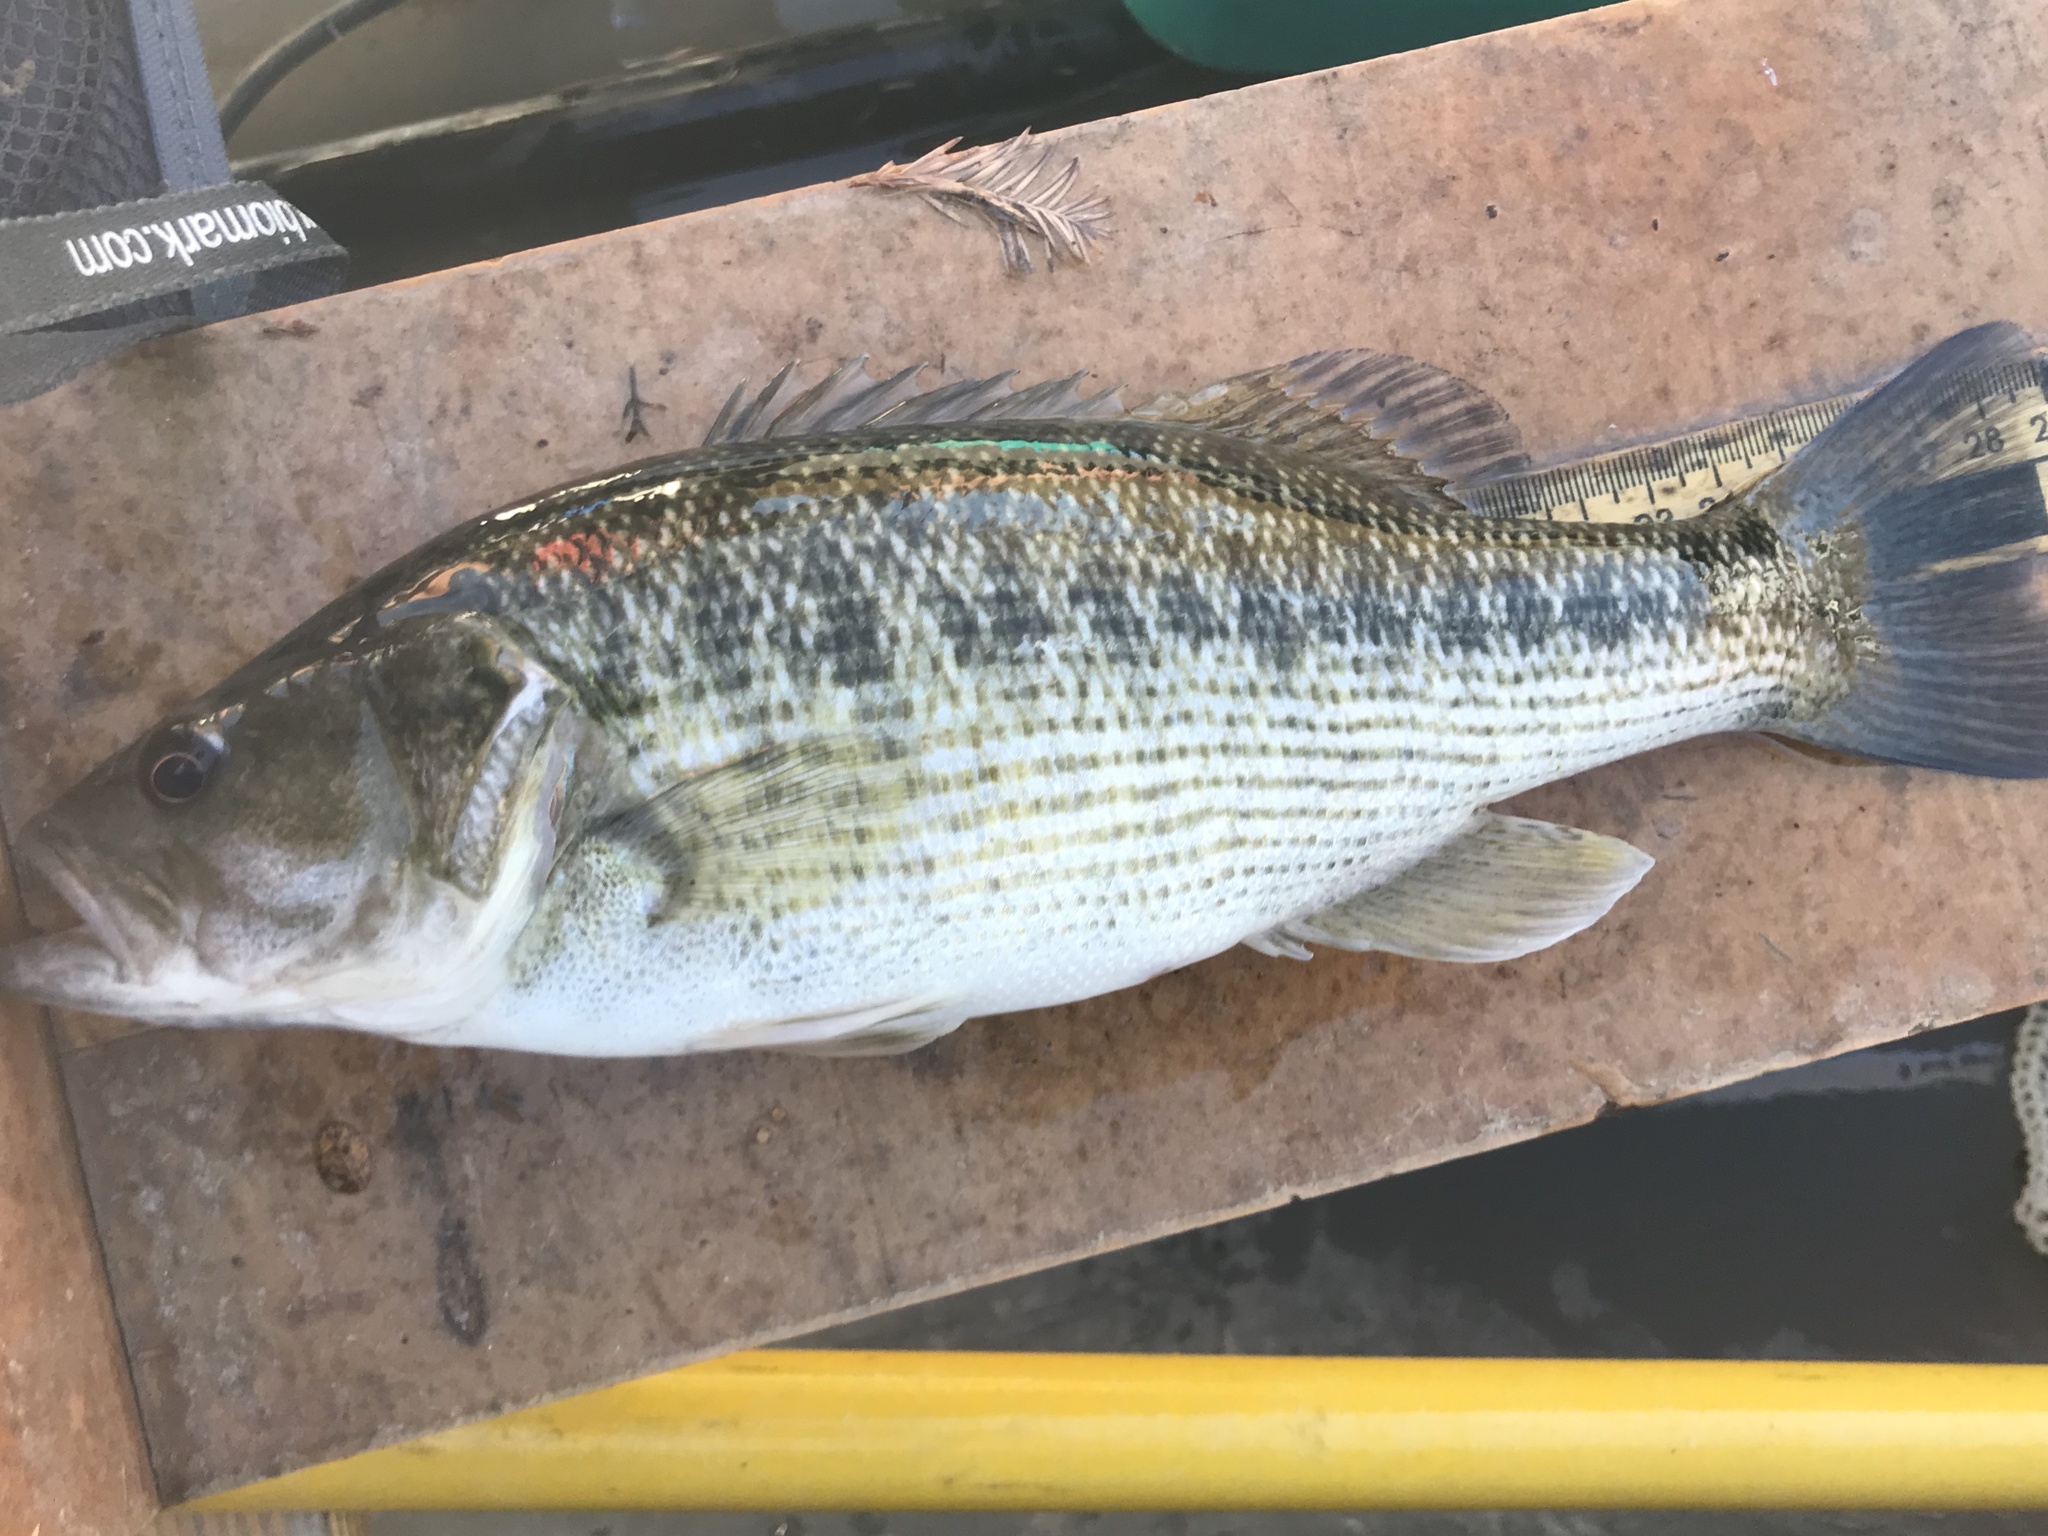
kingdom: Animalia
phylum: Chordata
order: Perciformes
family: Centrarchidae
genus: Micropterus
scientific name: Micropterus treculii
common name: Guadalupe bass
